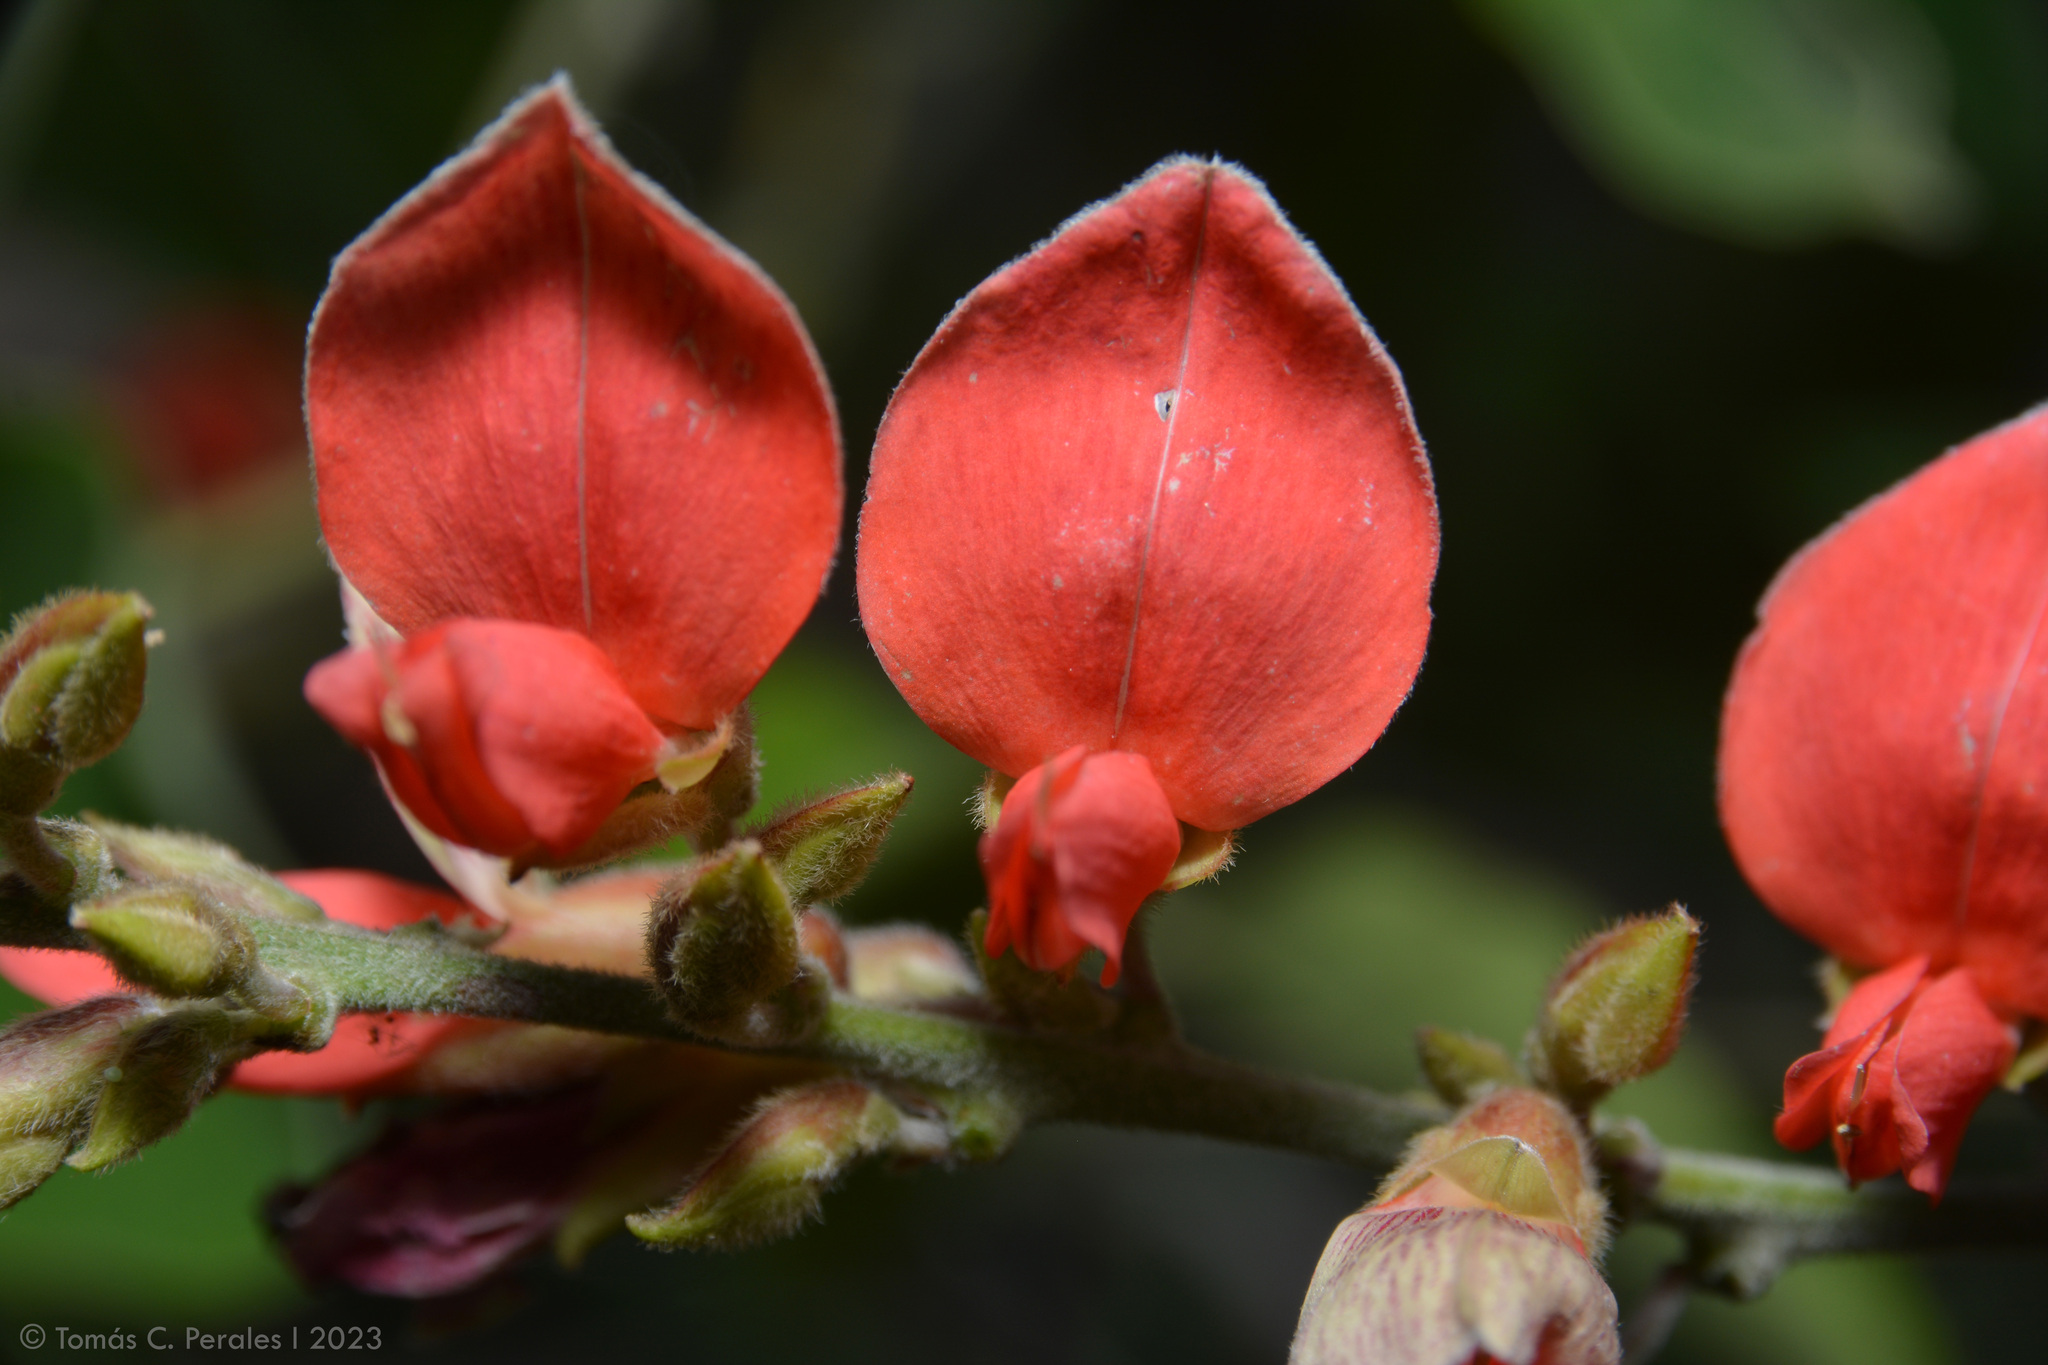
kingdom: Plantae
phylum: Tracheophyta
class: Magnoliopsida
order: Fabales
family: Fabaceae
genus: Cerradicola
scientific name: Cerradicola praeandina
